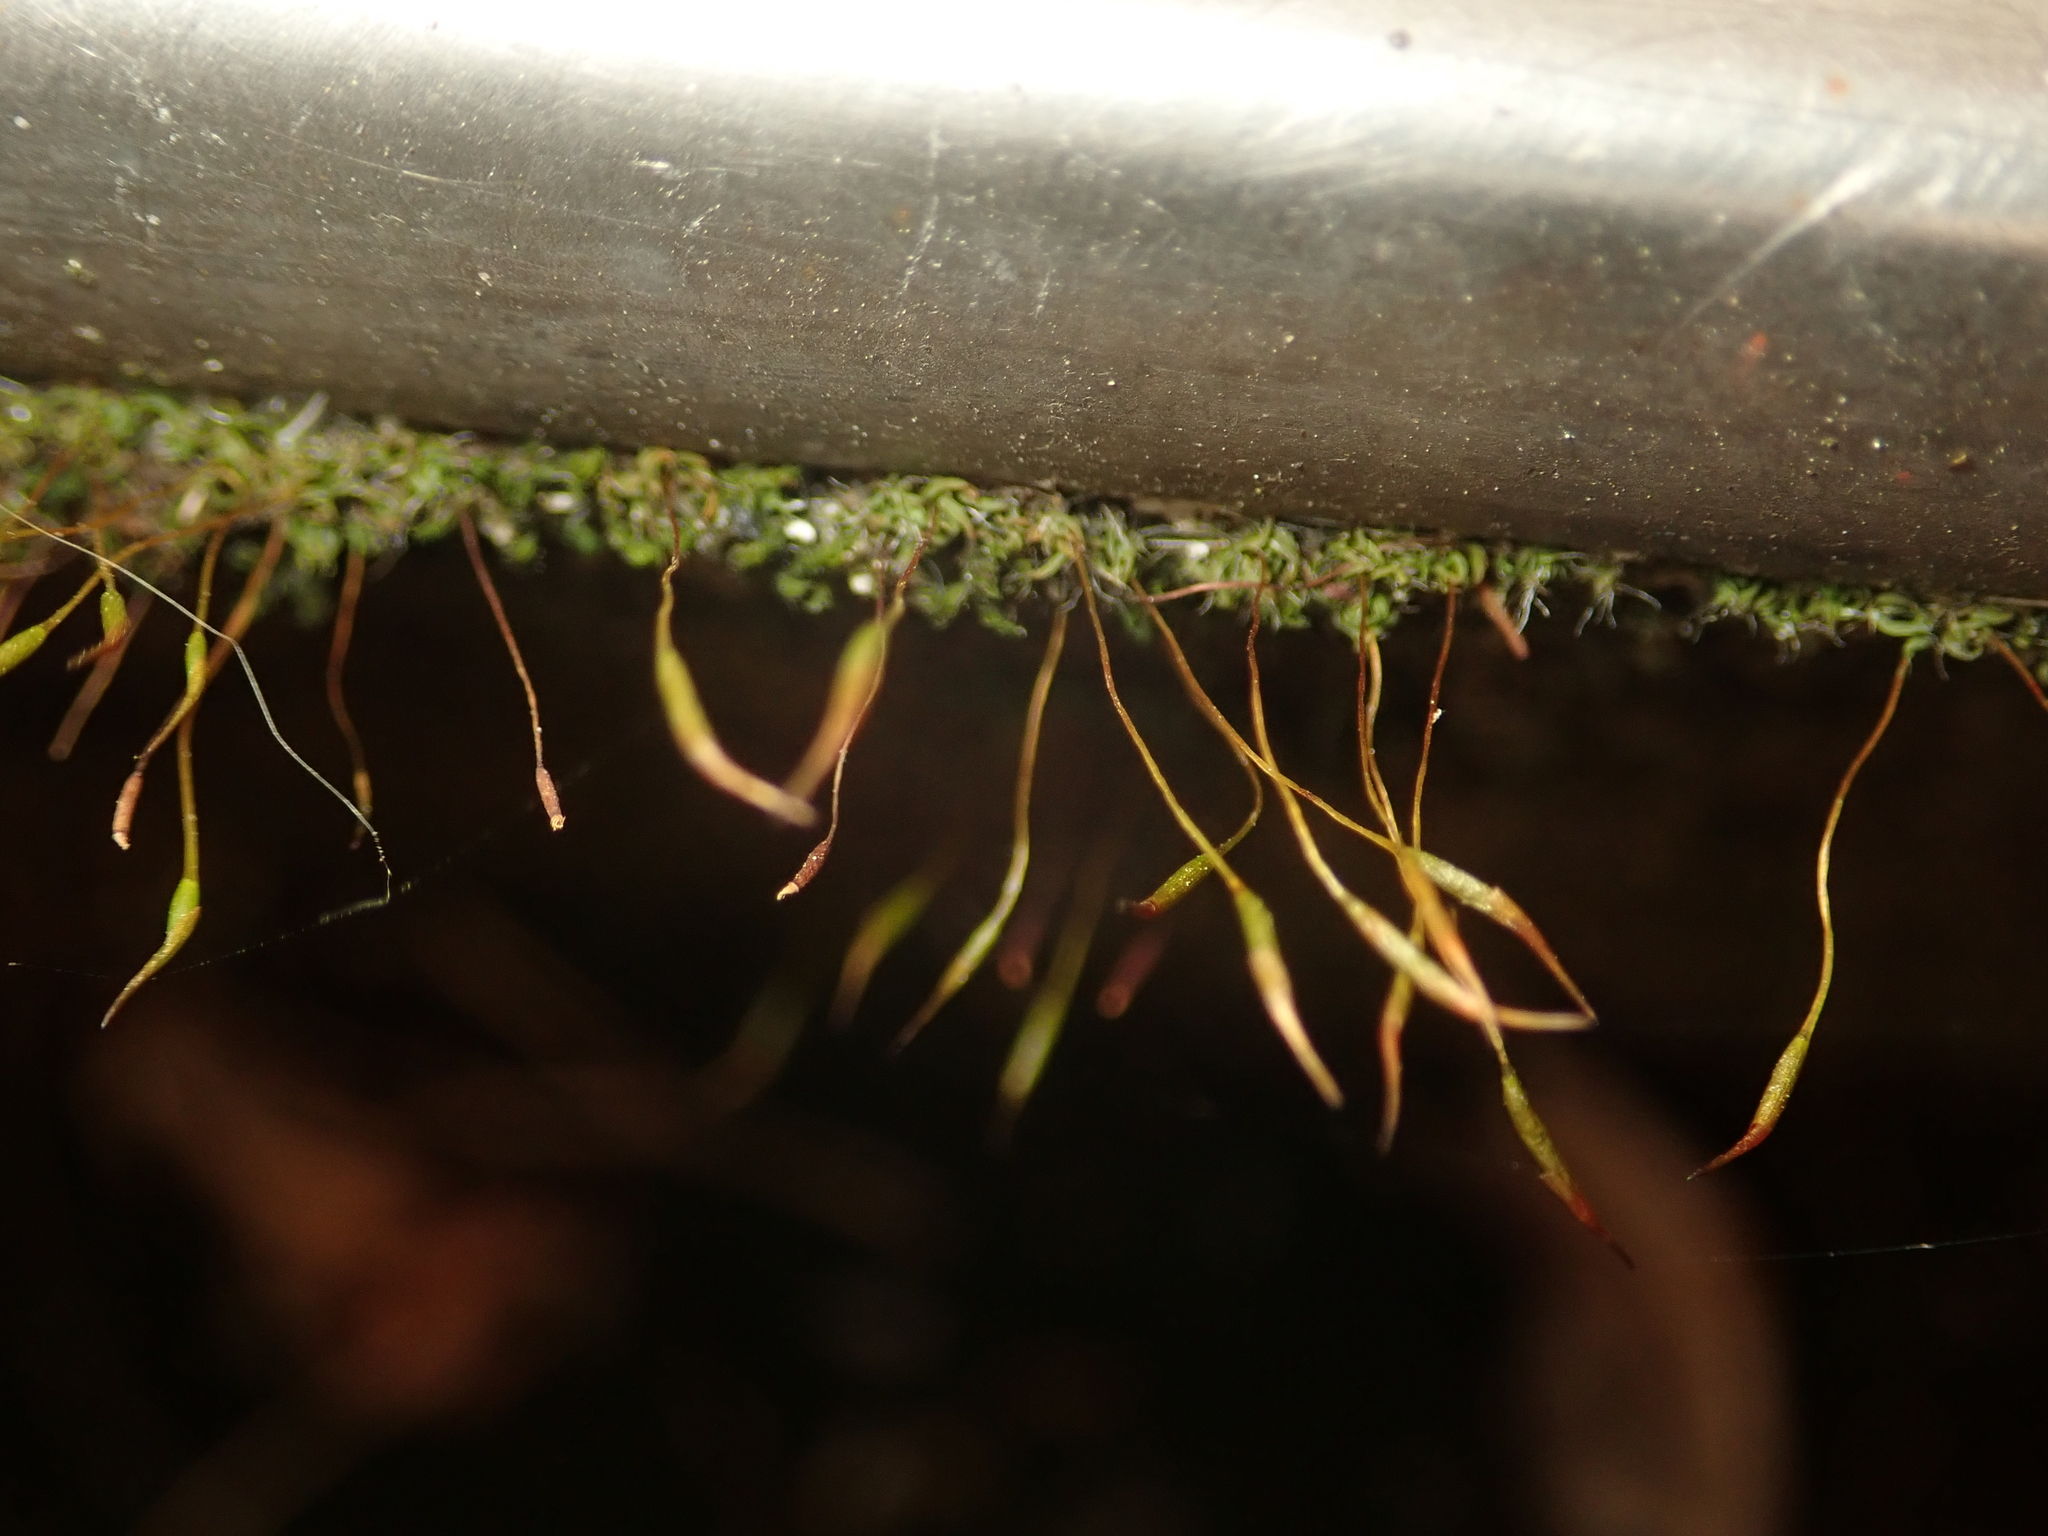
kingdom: Plantae
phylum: Bryophyta
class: Bryopsida
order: Pottiales
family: Pottiaceae
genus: Tortula
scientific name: Tortula muralis
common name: Wall screw-moss
